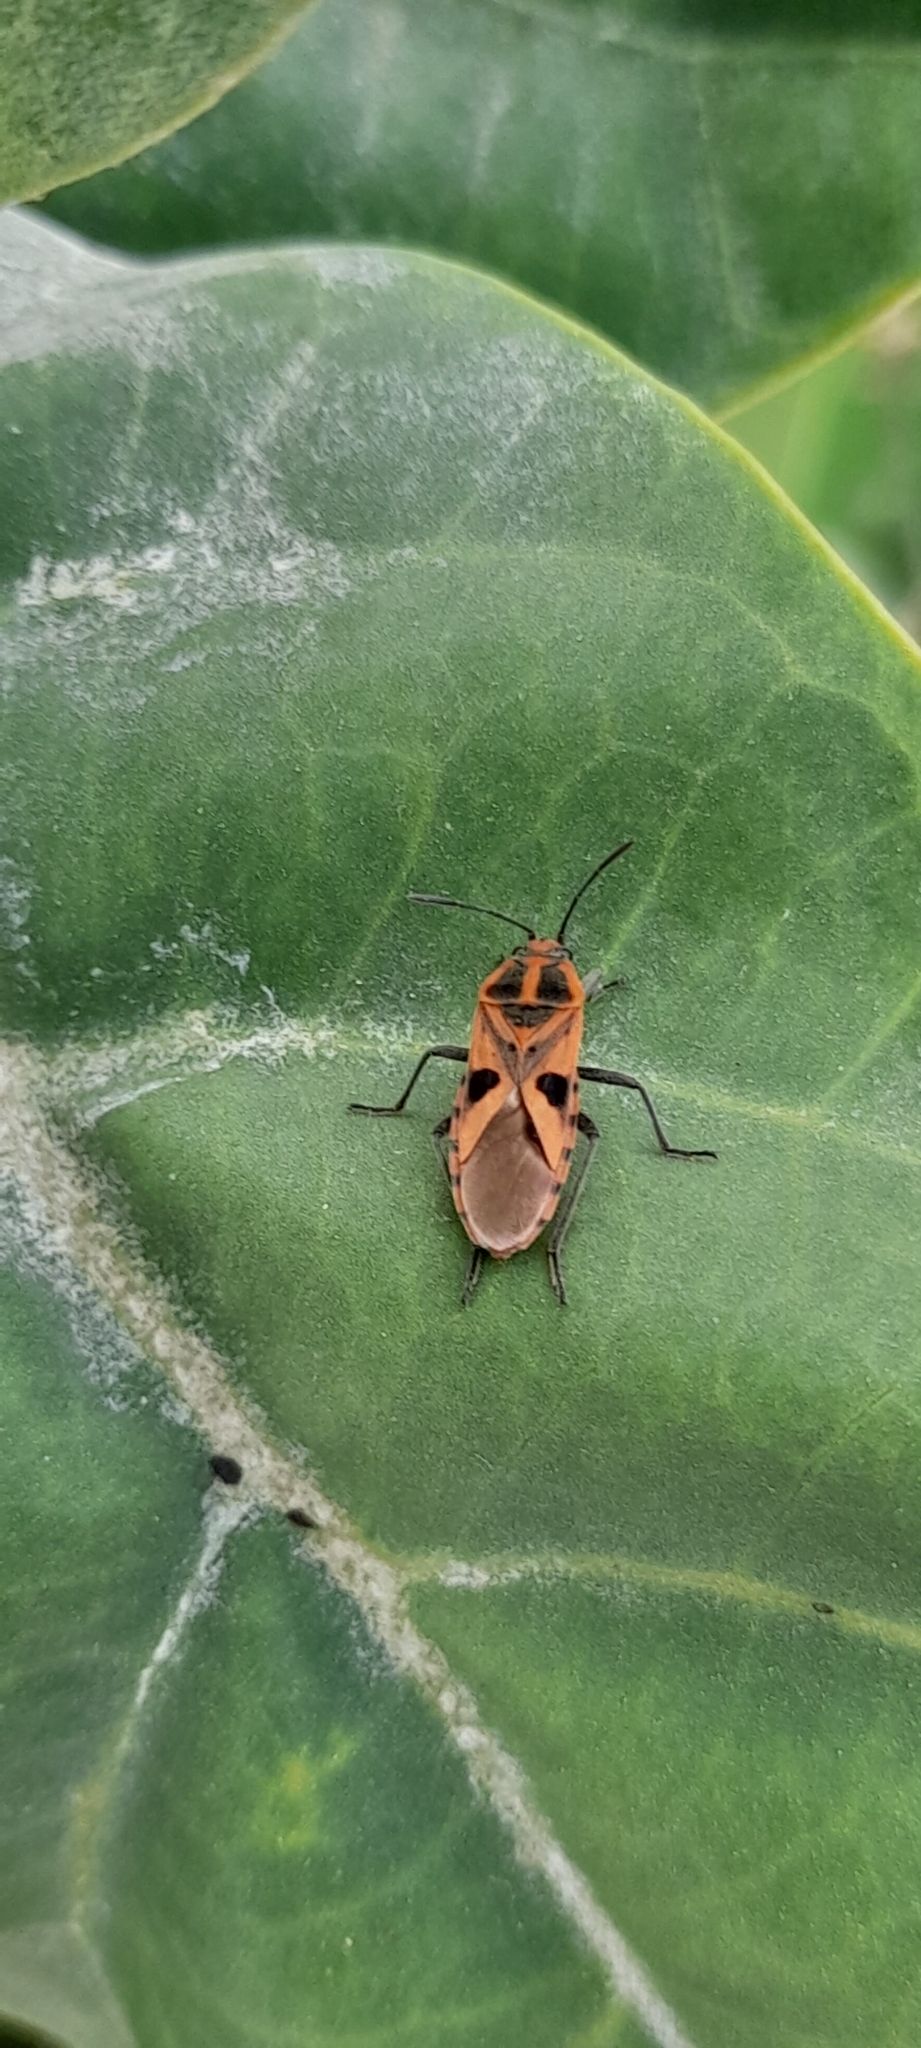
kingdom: Animalia
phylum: Arthropoda
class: Insecta
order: Hemiptera
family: Lygaeidae
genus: Spilostethus
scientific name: Spilostethus hospes
